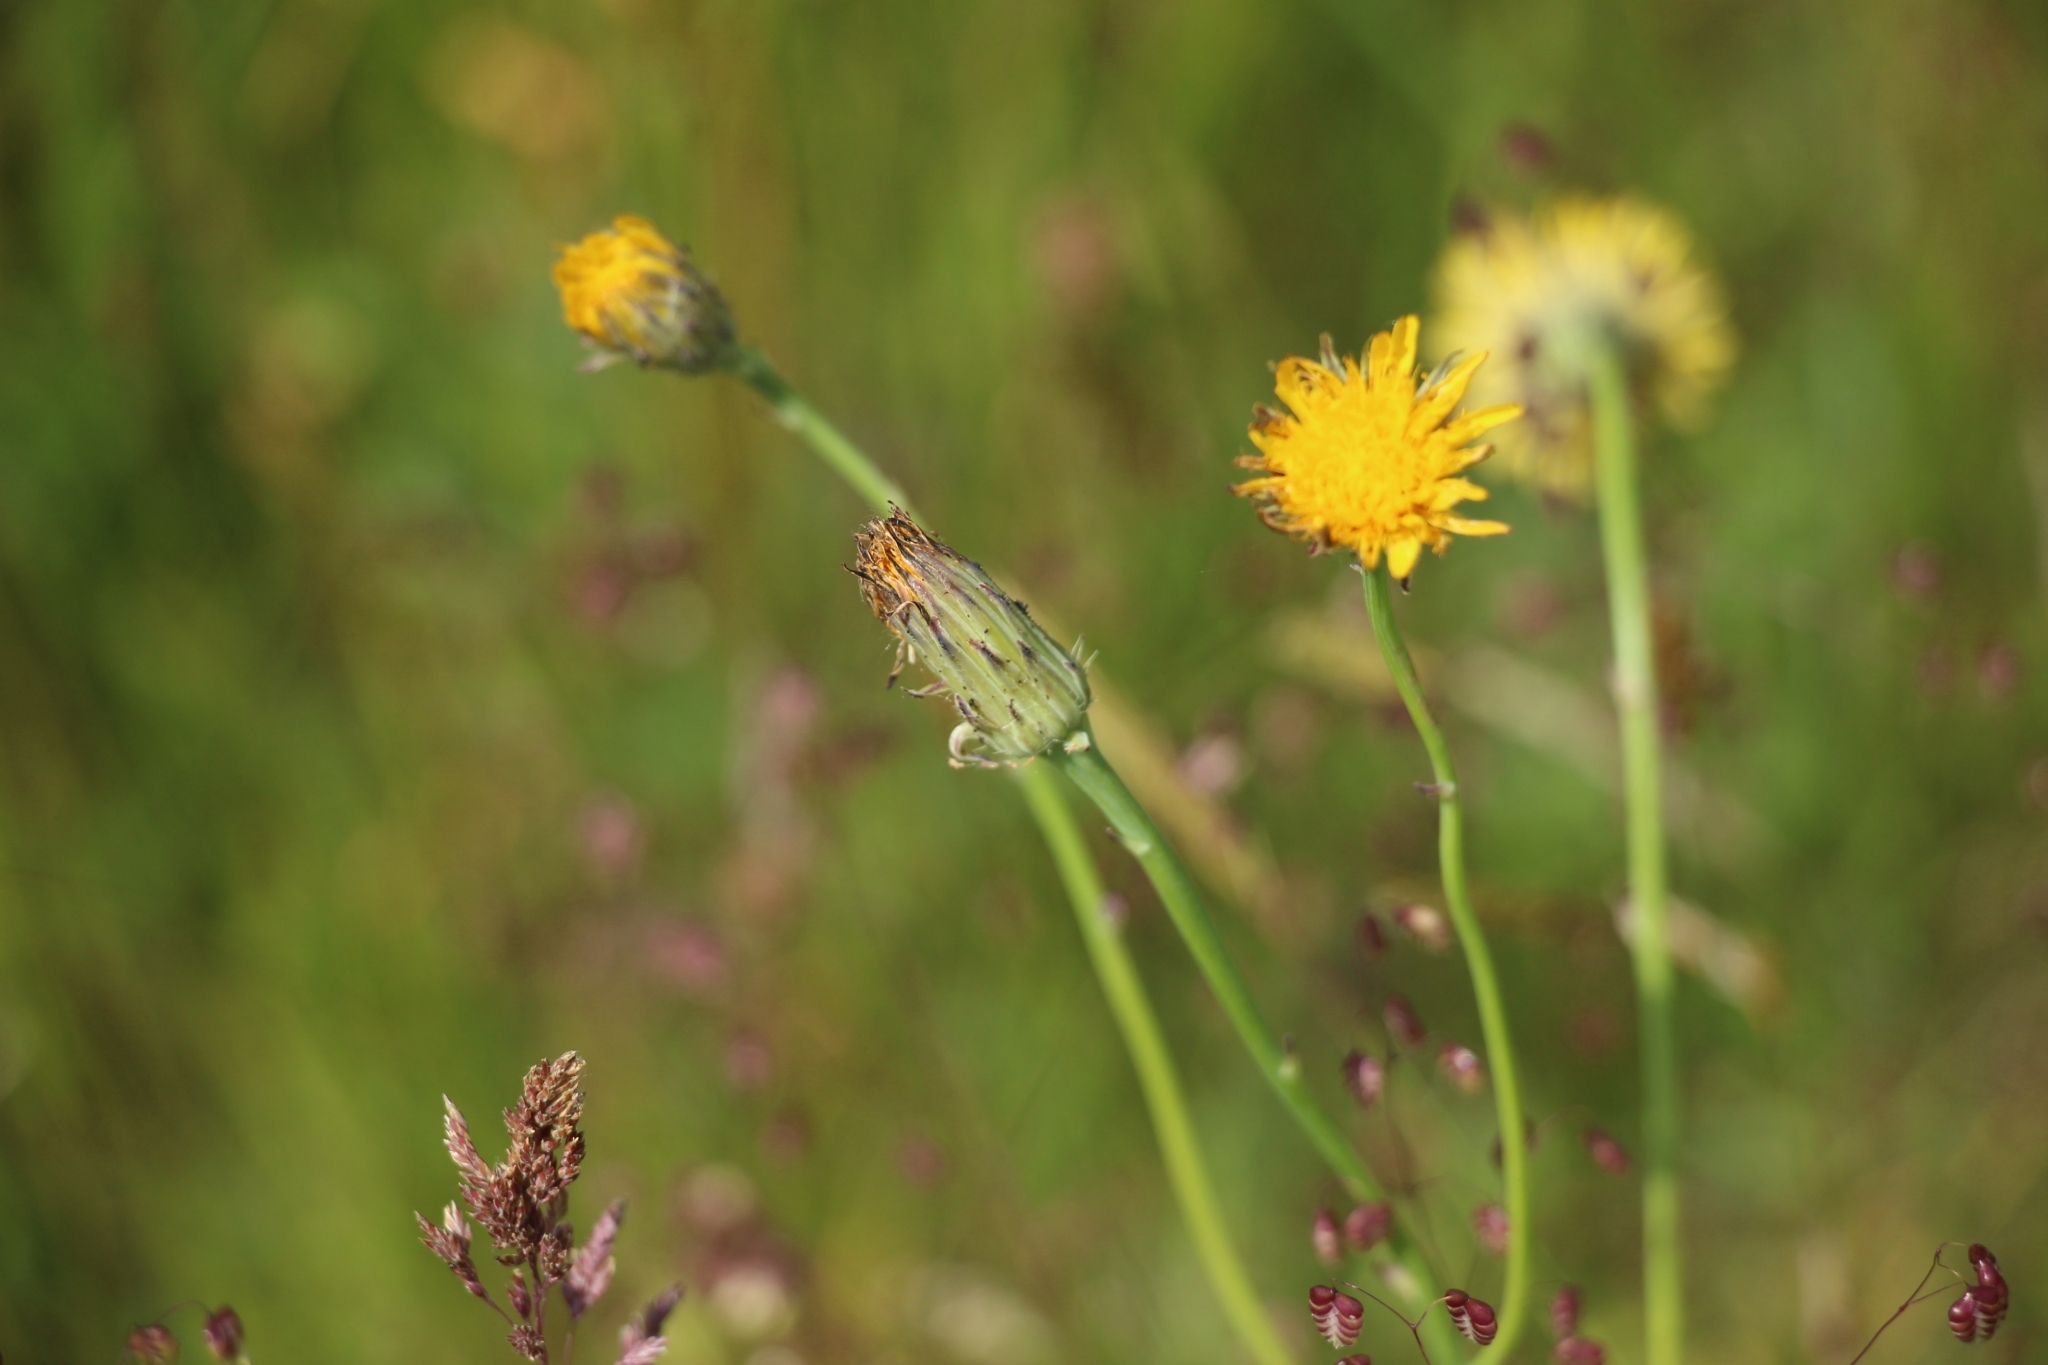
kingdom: Plantae
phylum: Tracheophyta
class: Magnoliopsida
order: Asterales
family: Asteraceae
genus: Hypochaeris
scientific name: Hypochaeris radicata
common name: Flatweed
